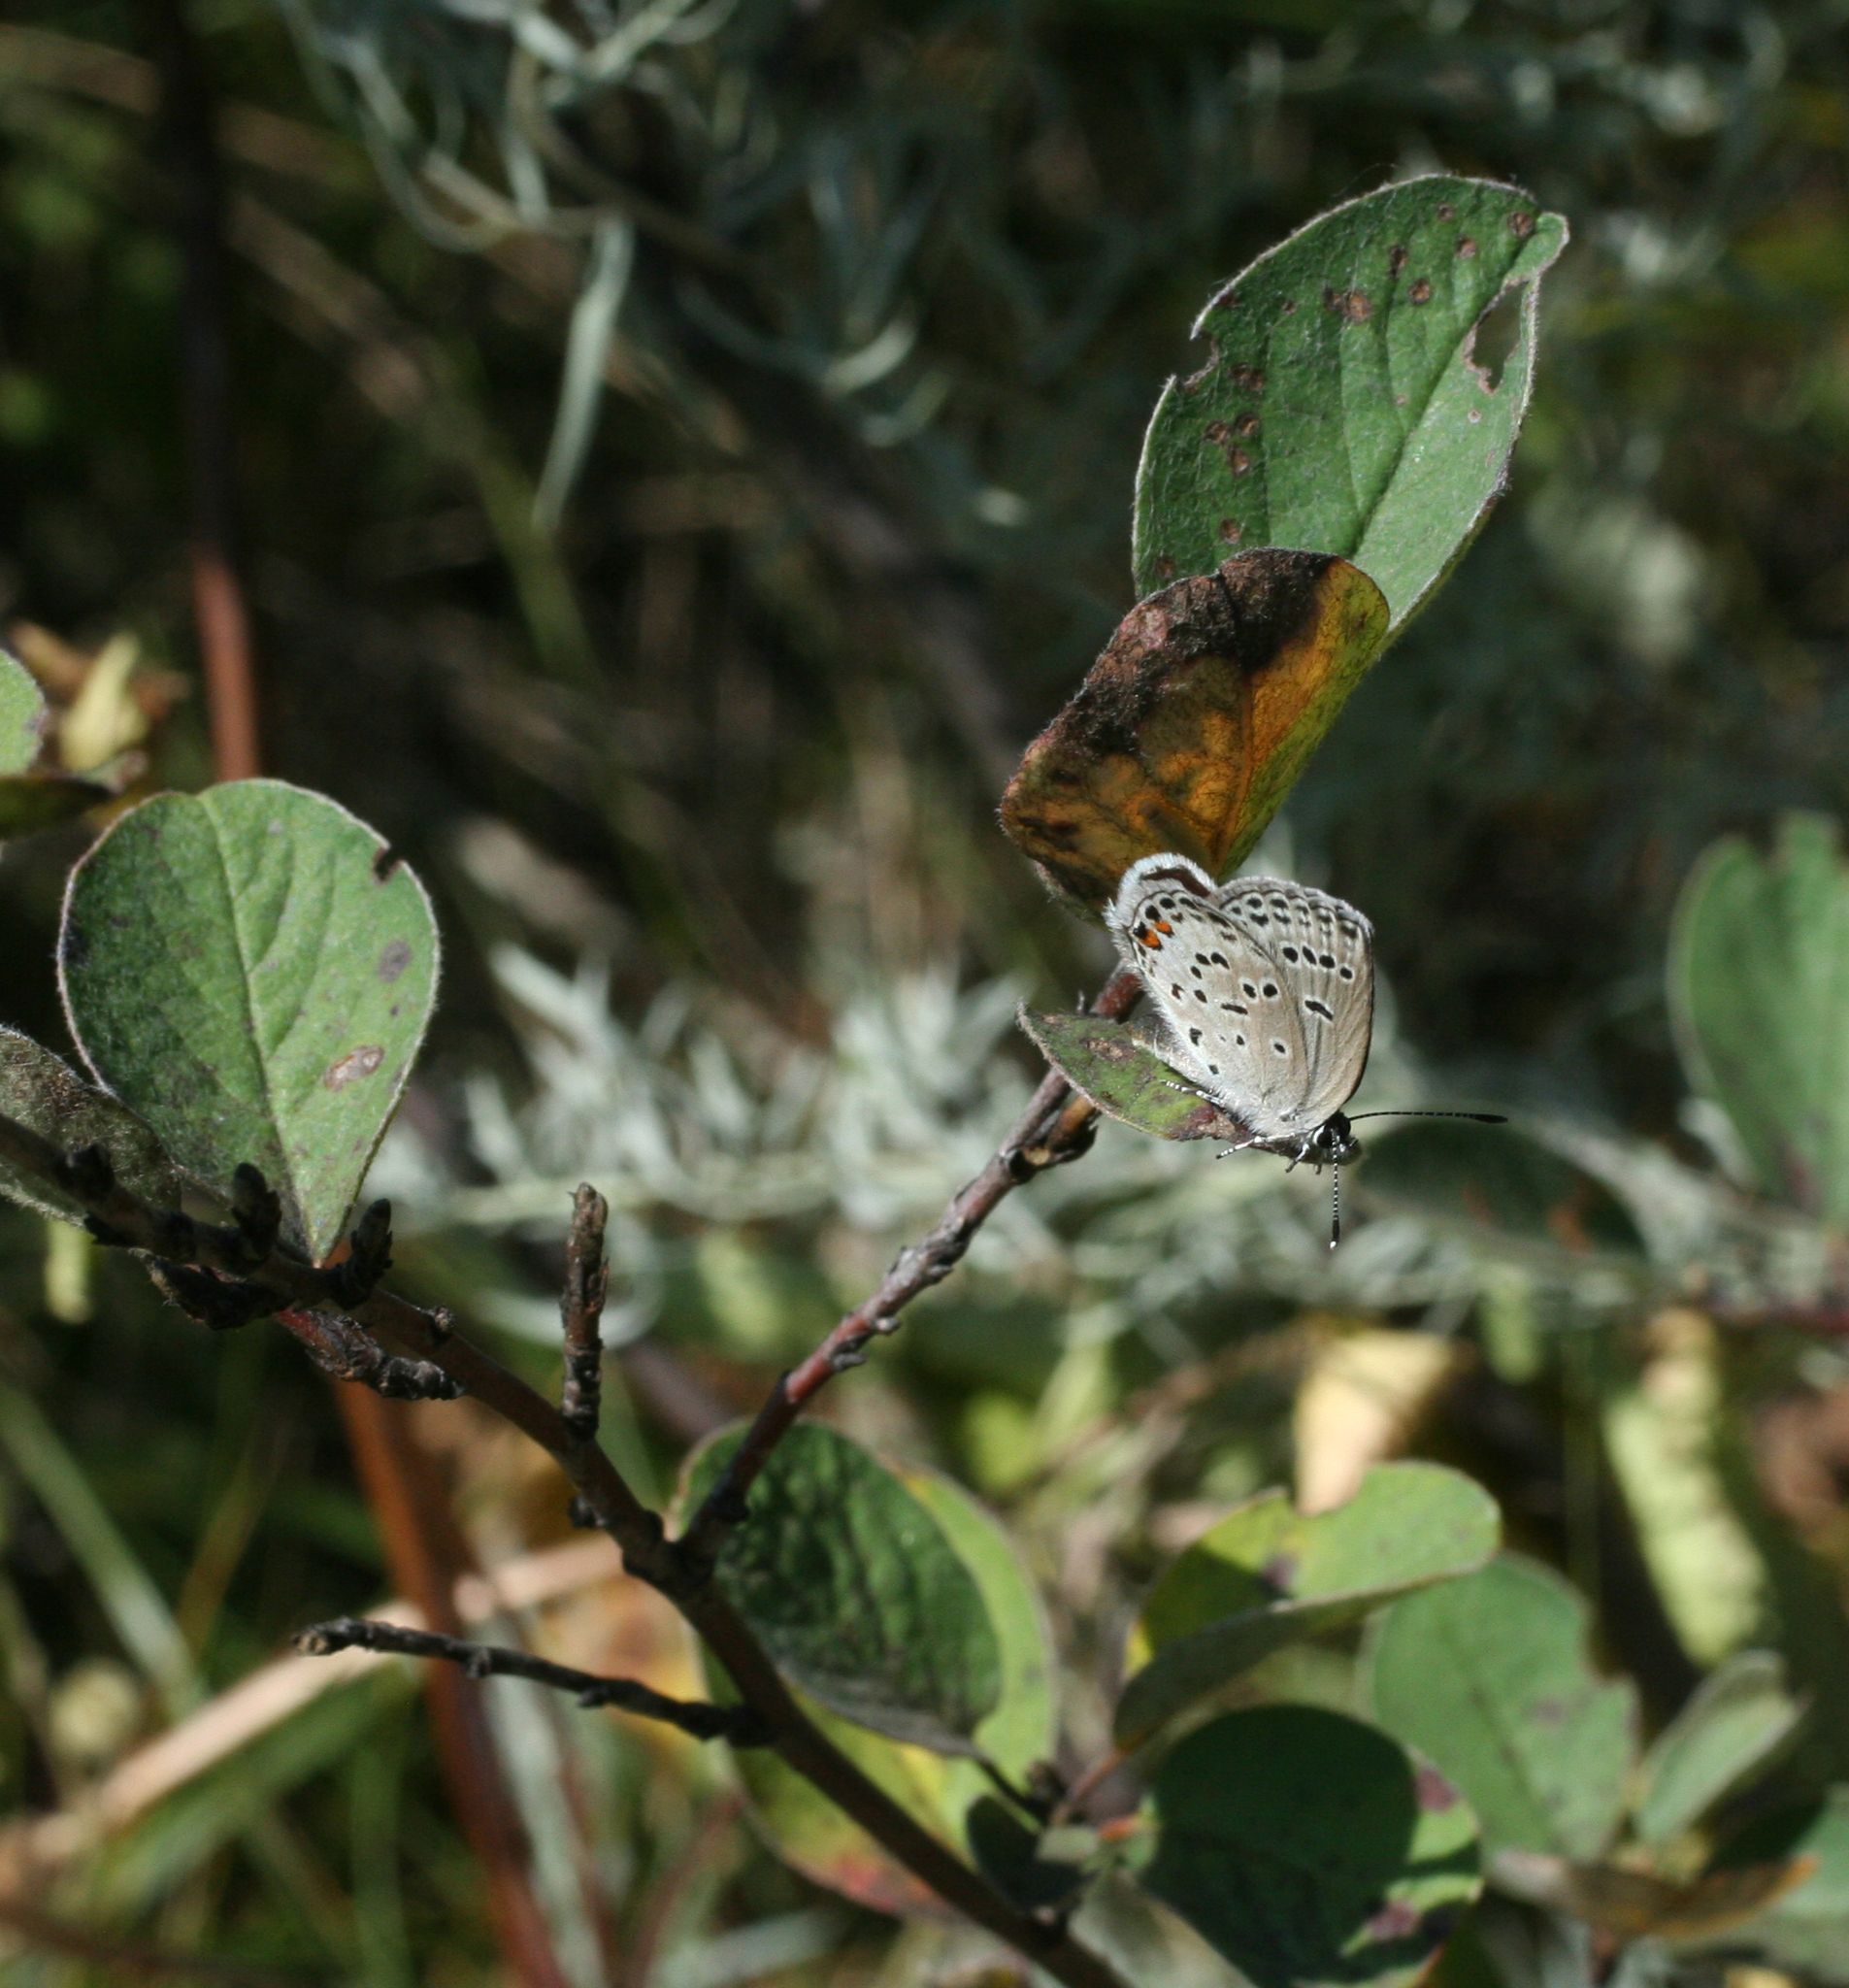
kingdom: Animalia
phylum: Arthropoda
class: Insecta
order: Lepidoptera
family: Lycaenidae
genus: Tongeia
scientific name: Tongeia fischeri
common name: Fischer's blue
